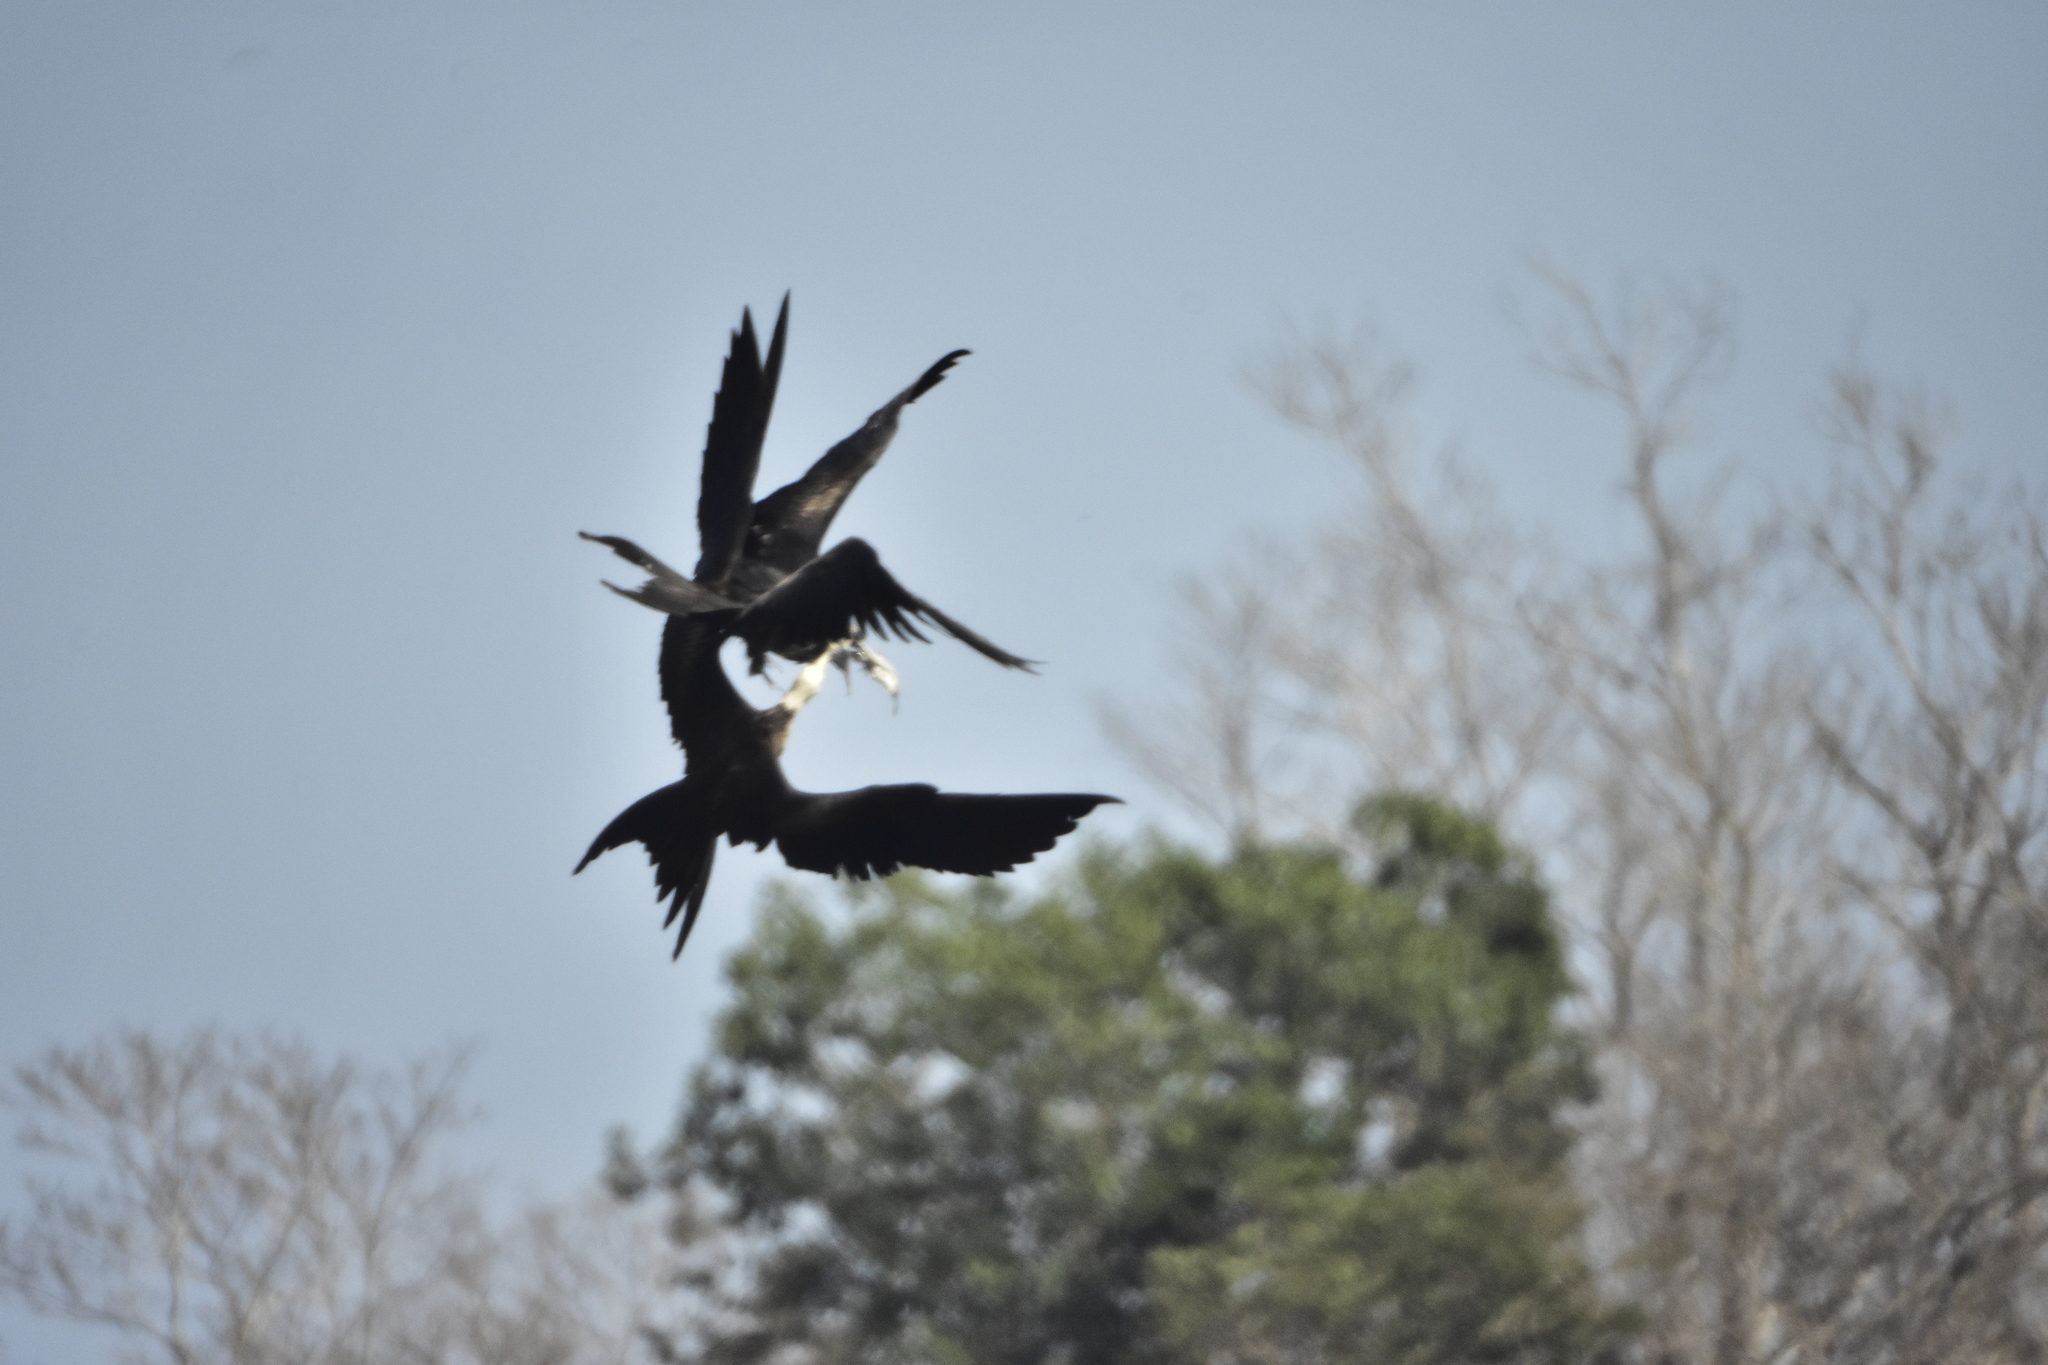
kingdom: Animalia
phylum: Chordata
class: Aves
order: Suliformes
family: Fregatidae
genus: Fregata
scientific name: Fregata magnificens
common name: Magnificent frigatebird
